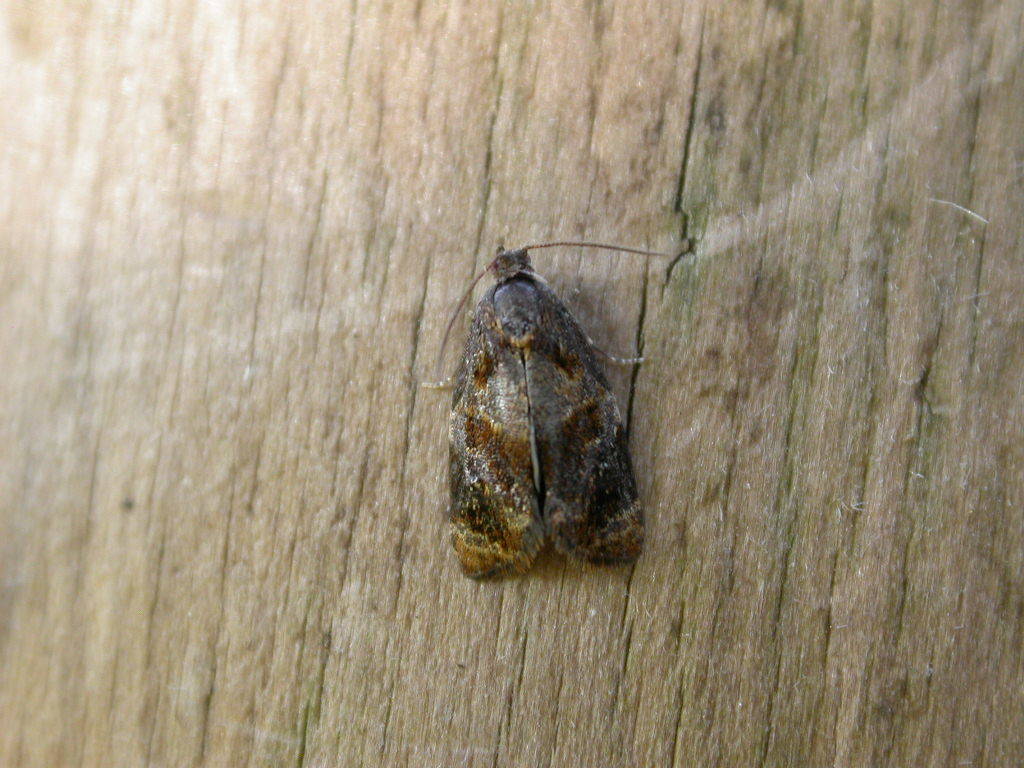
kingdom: Animalia
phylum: Arthropoda
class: Insecta
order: Lepidoptera
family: Tortricidae
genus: Archips
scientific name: Archips xylosteana
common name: Variegated golden tortrix
